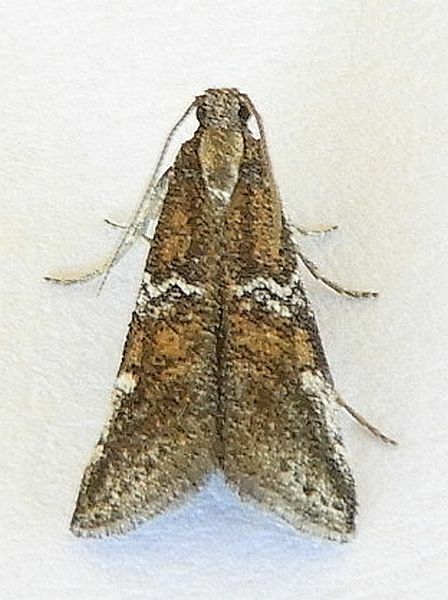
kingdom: Animalia
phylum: Arthropoda
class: Insecta
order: Lepidoptera
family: Pyralidae
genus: Alpheias
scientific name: Alpheias vicarilis
